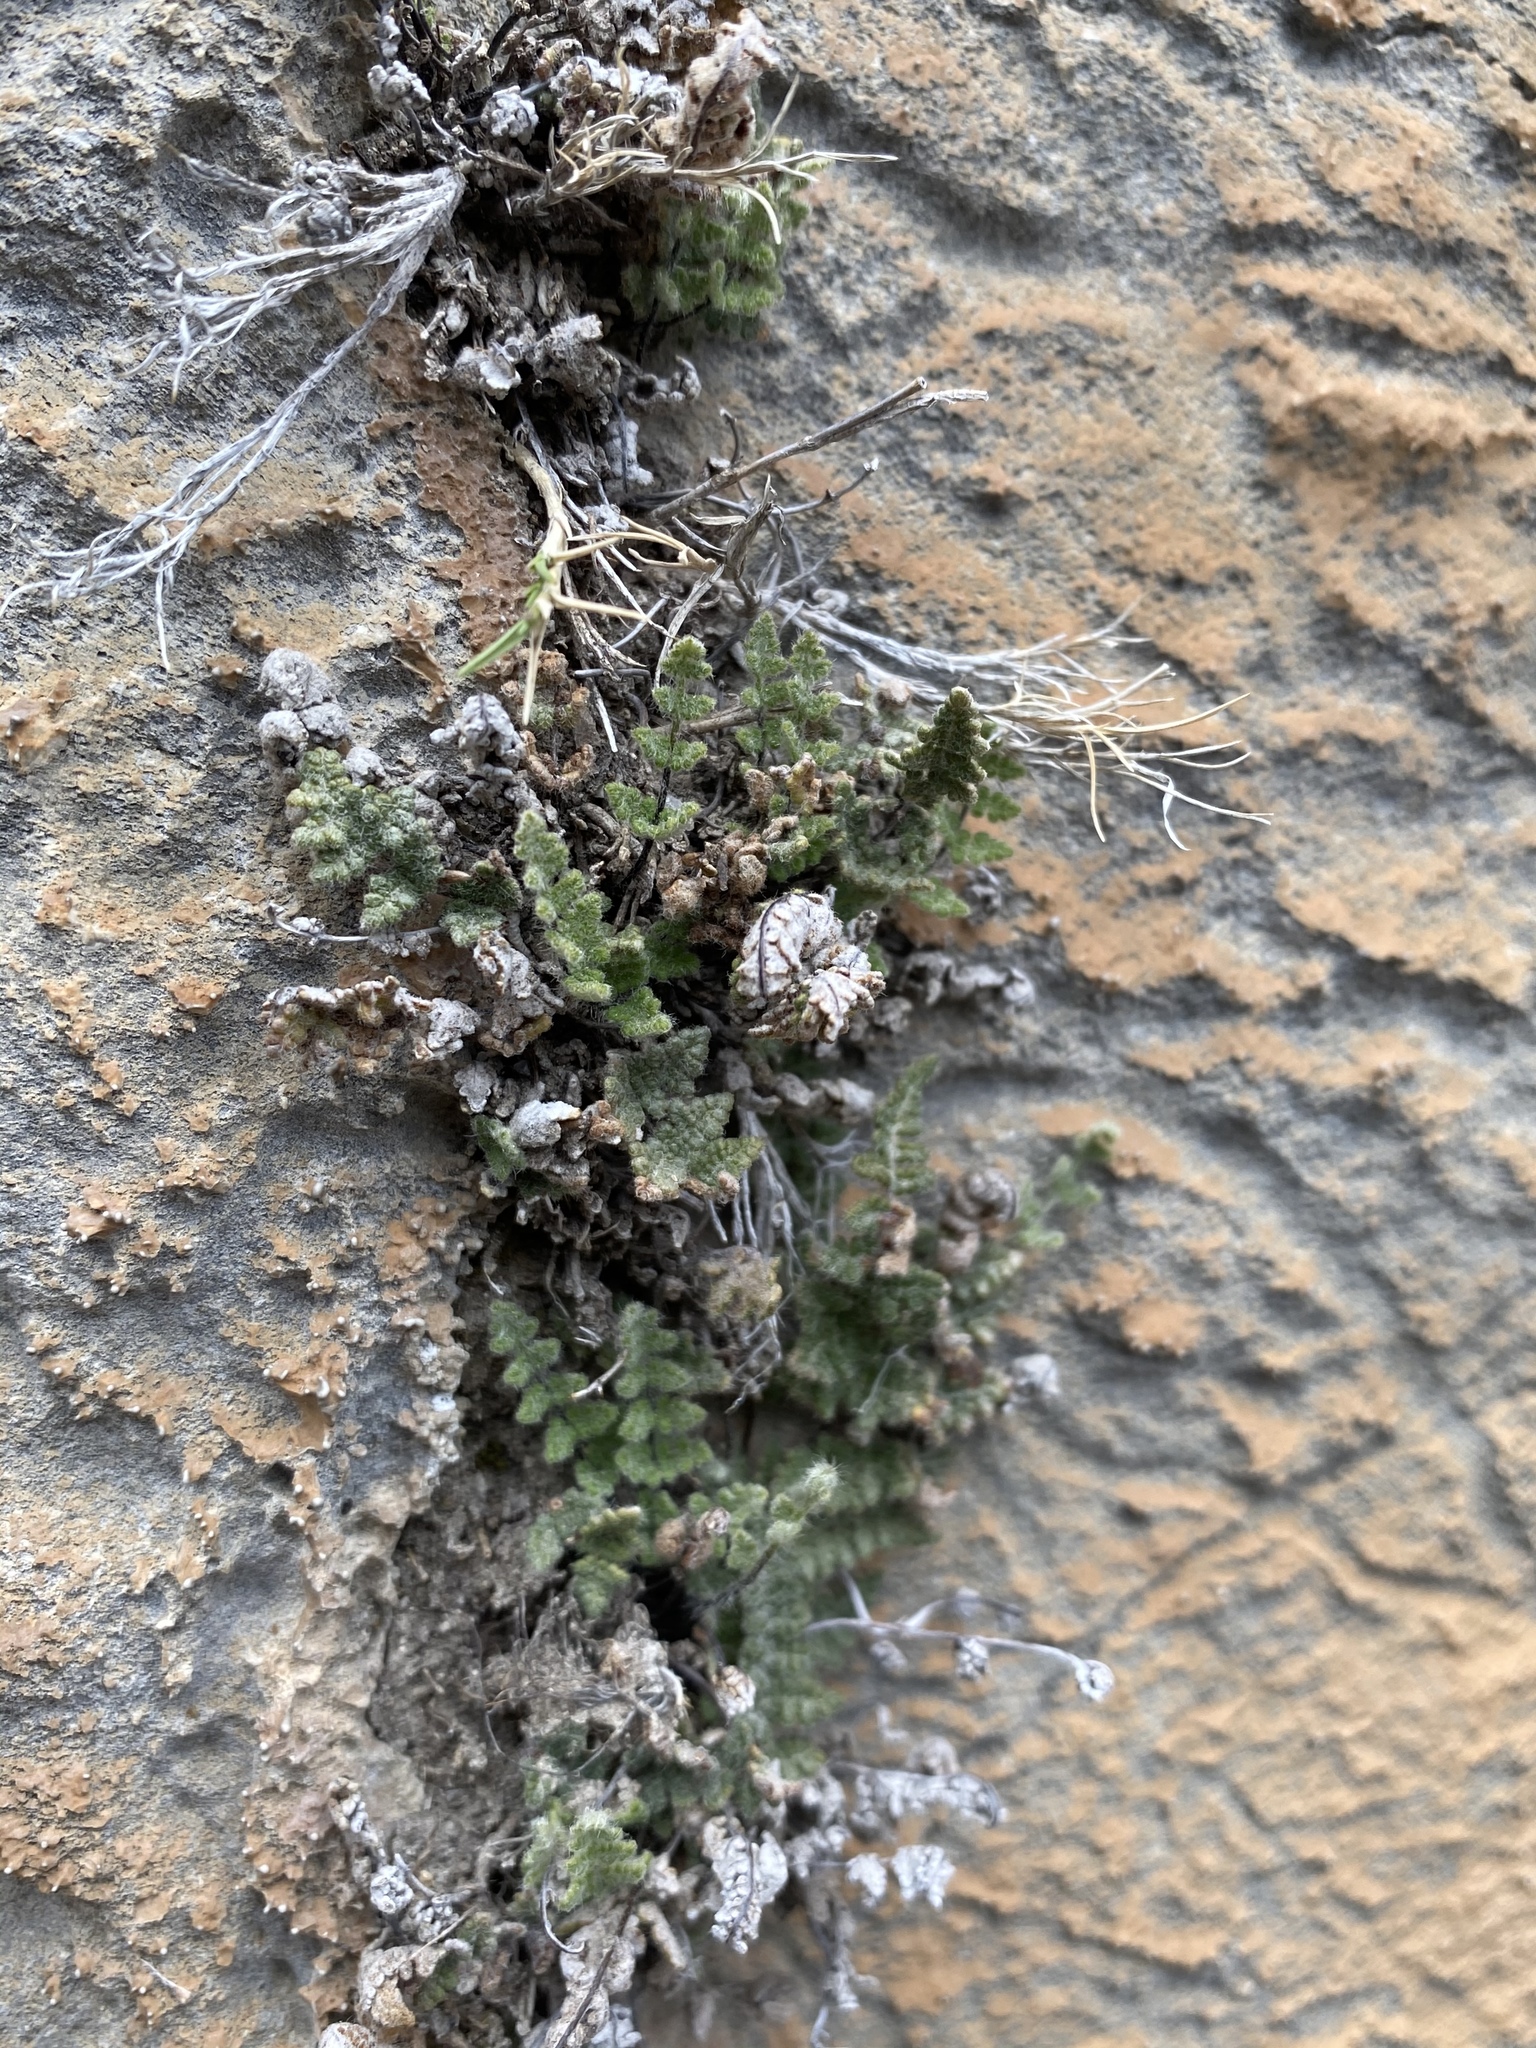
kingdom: Plantae
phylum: Tracheophyta
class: Polypodiopsida
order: Polypodiales
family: Pteridaceae
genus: Myriopteris
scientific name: Myriopteris parryi
